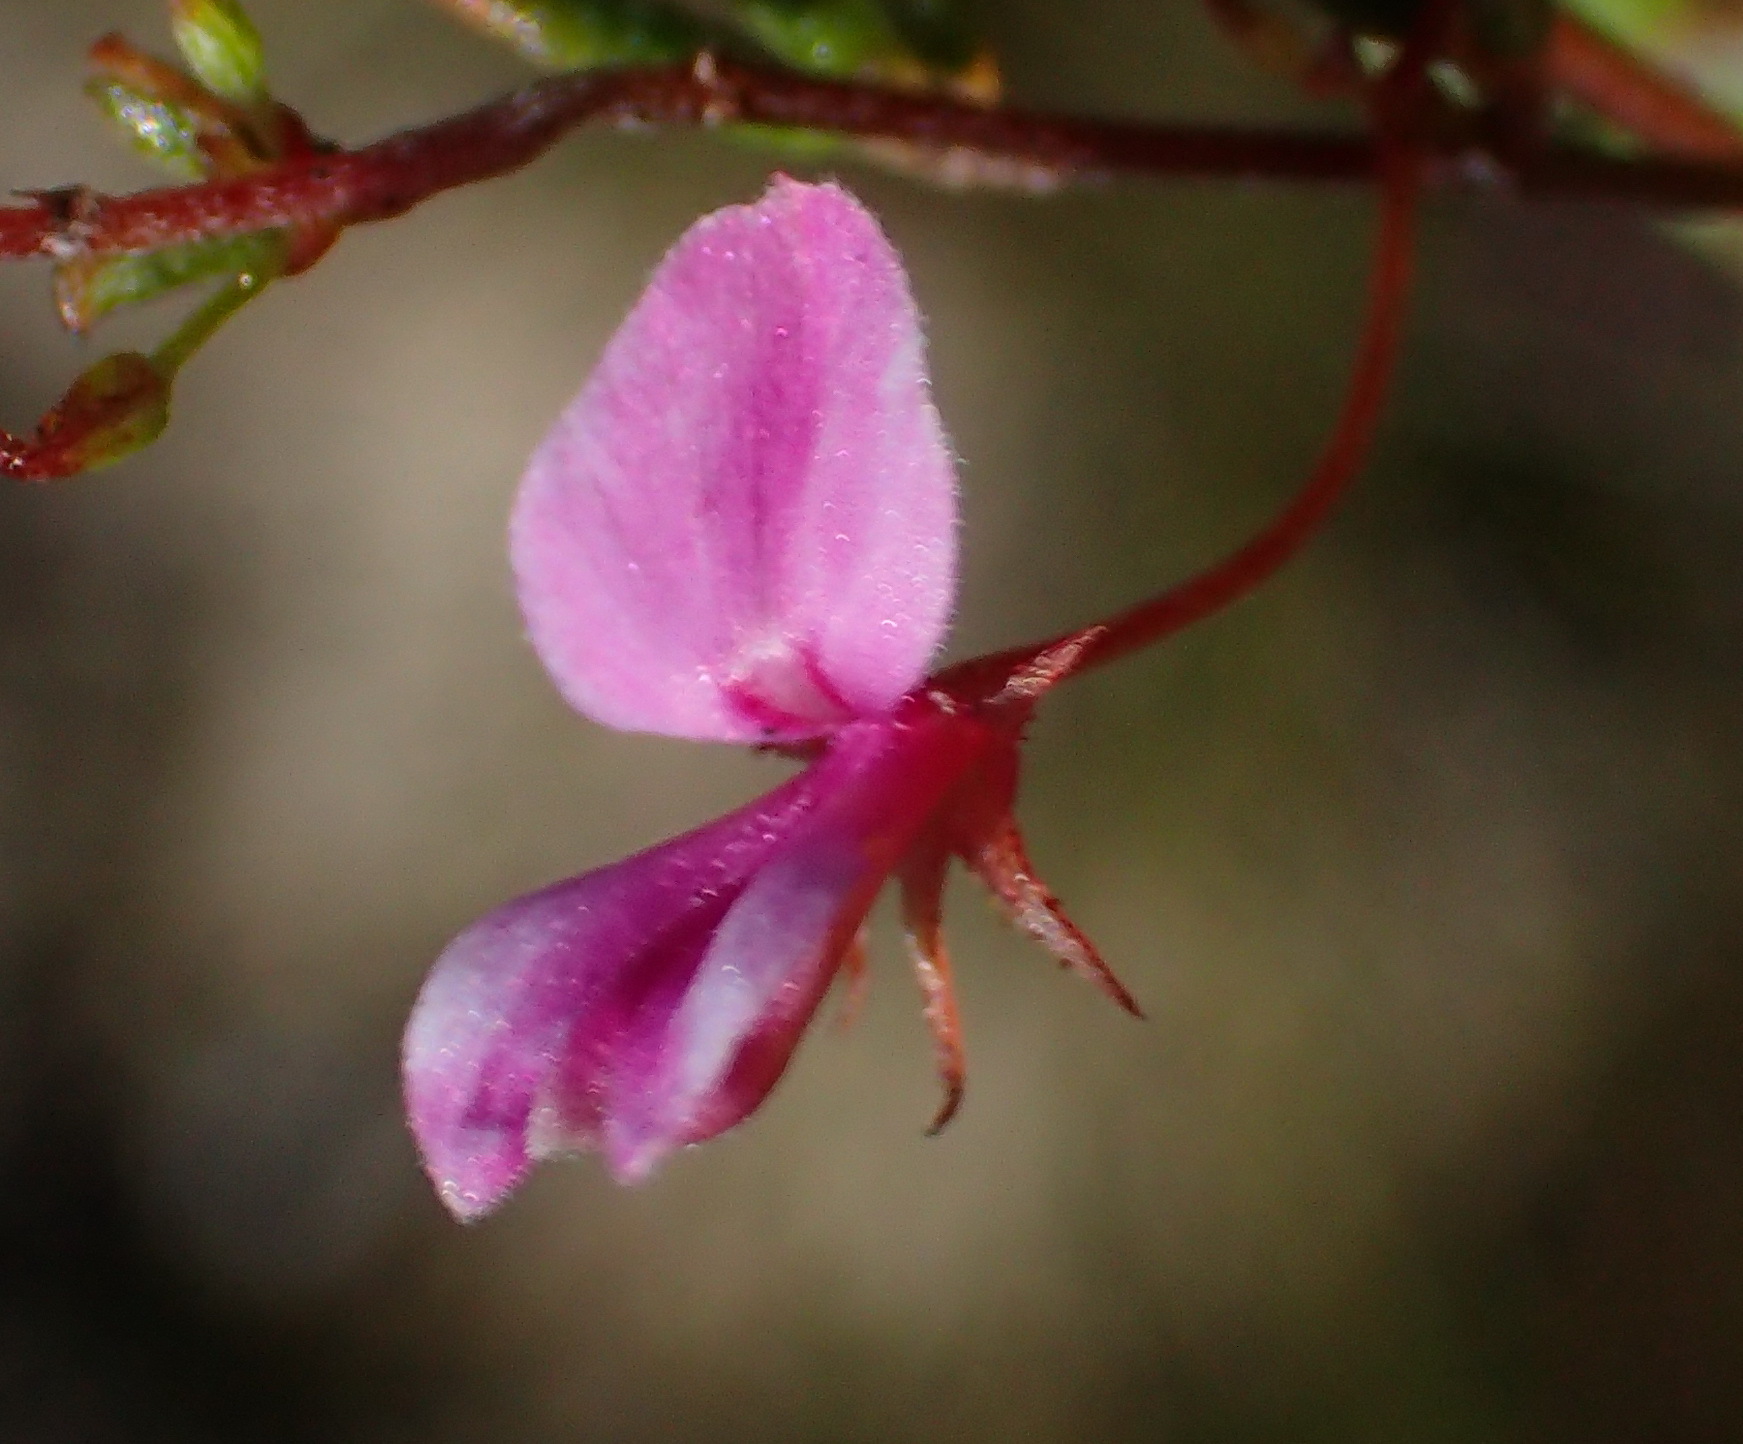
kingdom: Plantae
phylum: Tracheophyta
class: Magnoliopsida
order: Fabales
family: Fabaceae
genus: Indigofera
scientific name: Indigofera setosa
